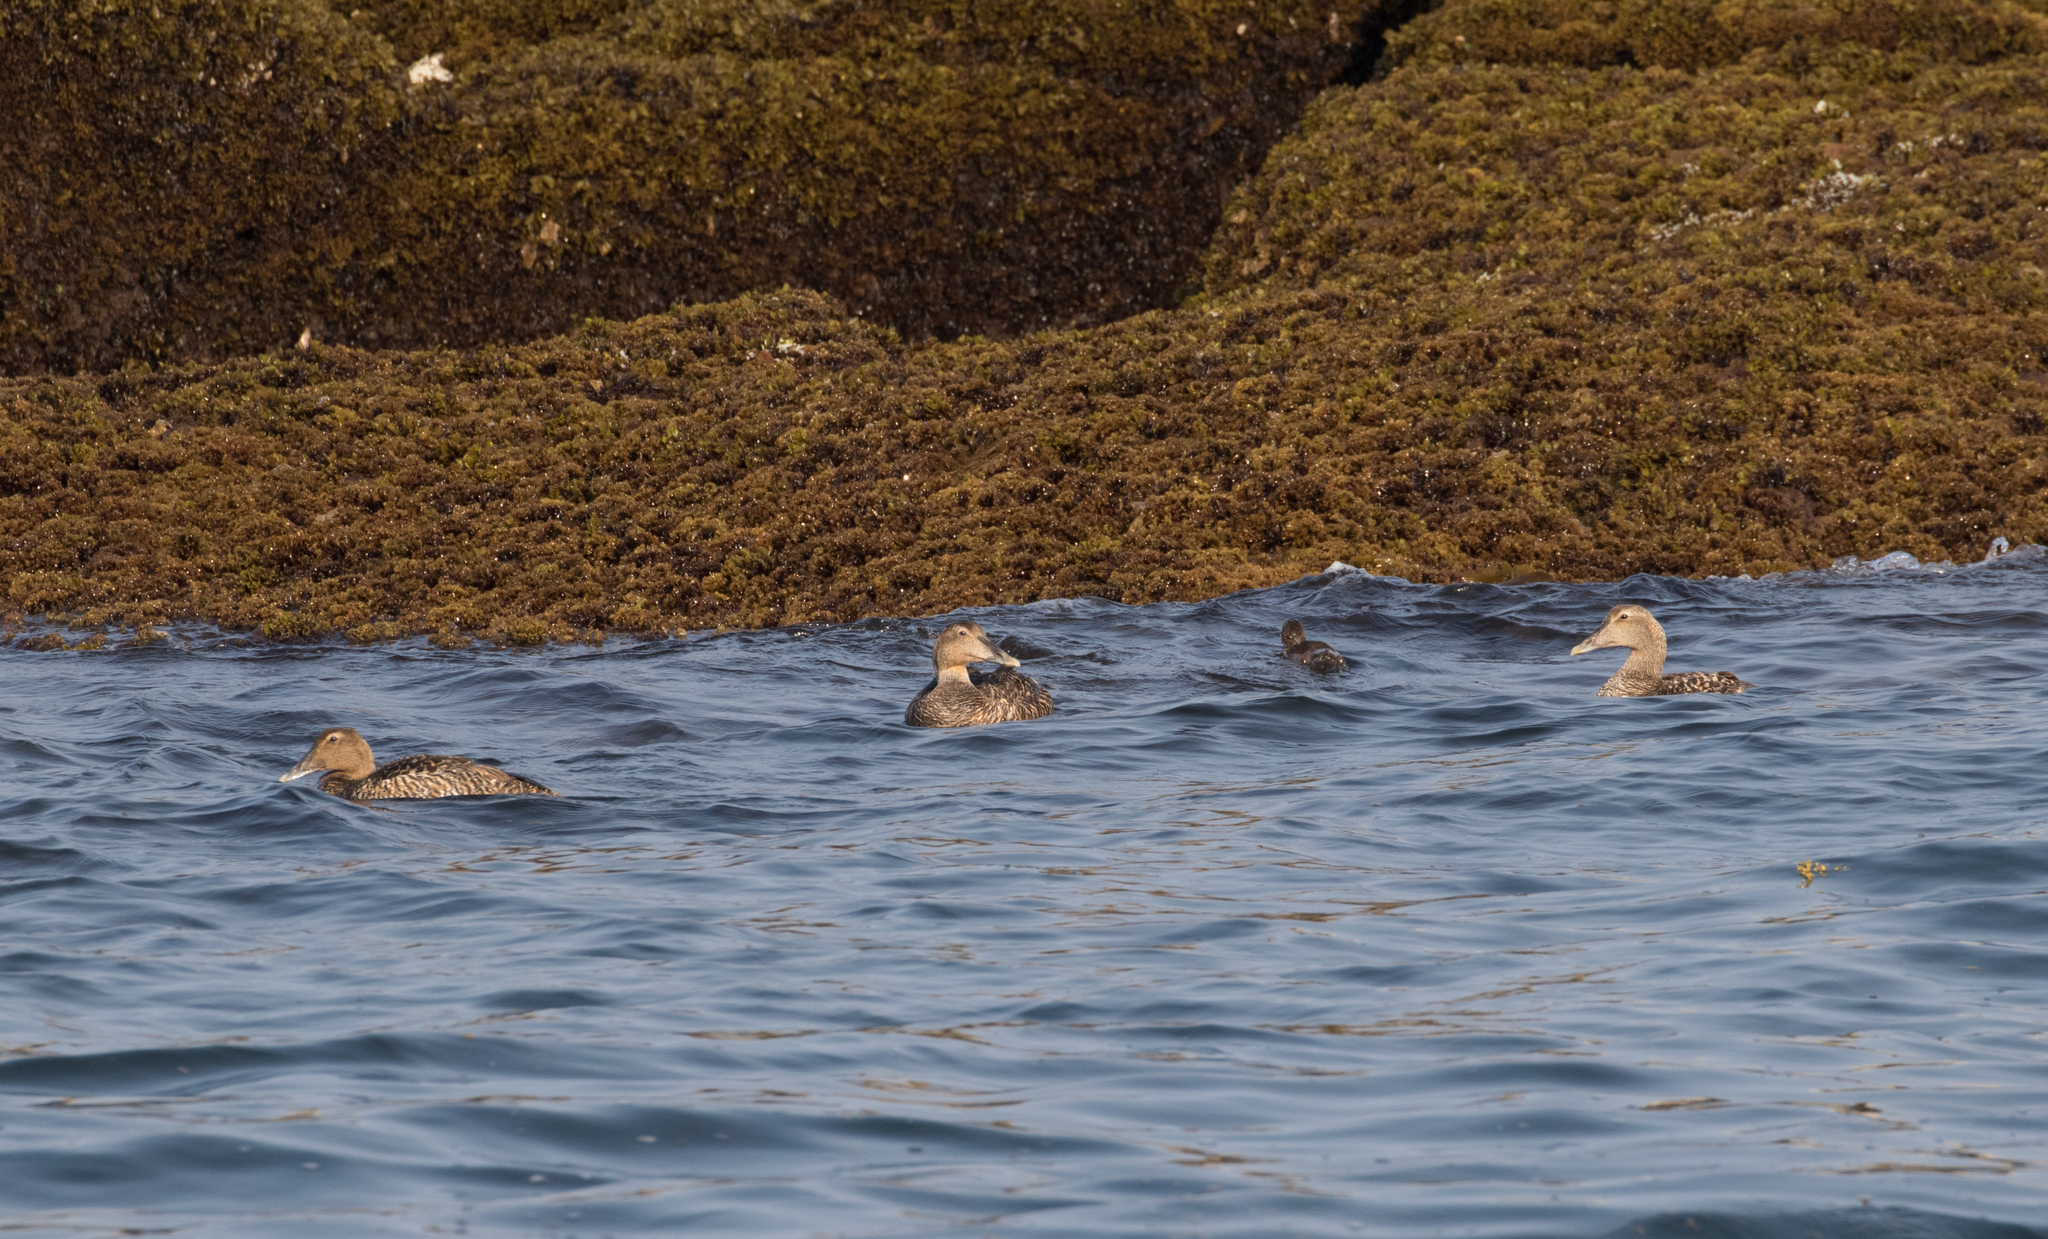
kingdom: Animalia
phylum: Chordata
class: Aves
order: Anseriformes
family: Anatidae
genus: Somateria
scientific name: Somateria mollissima
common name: Common eider
